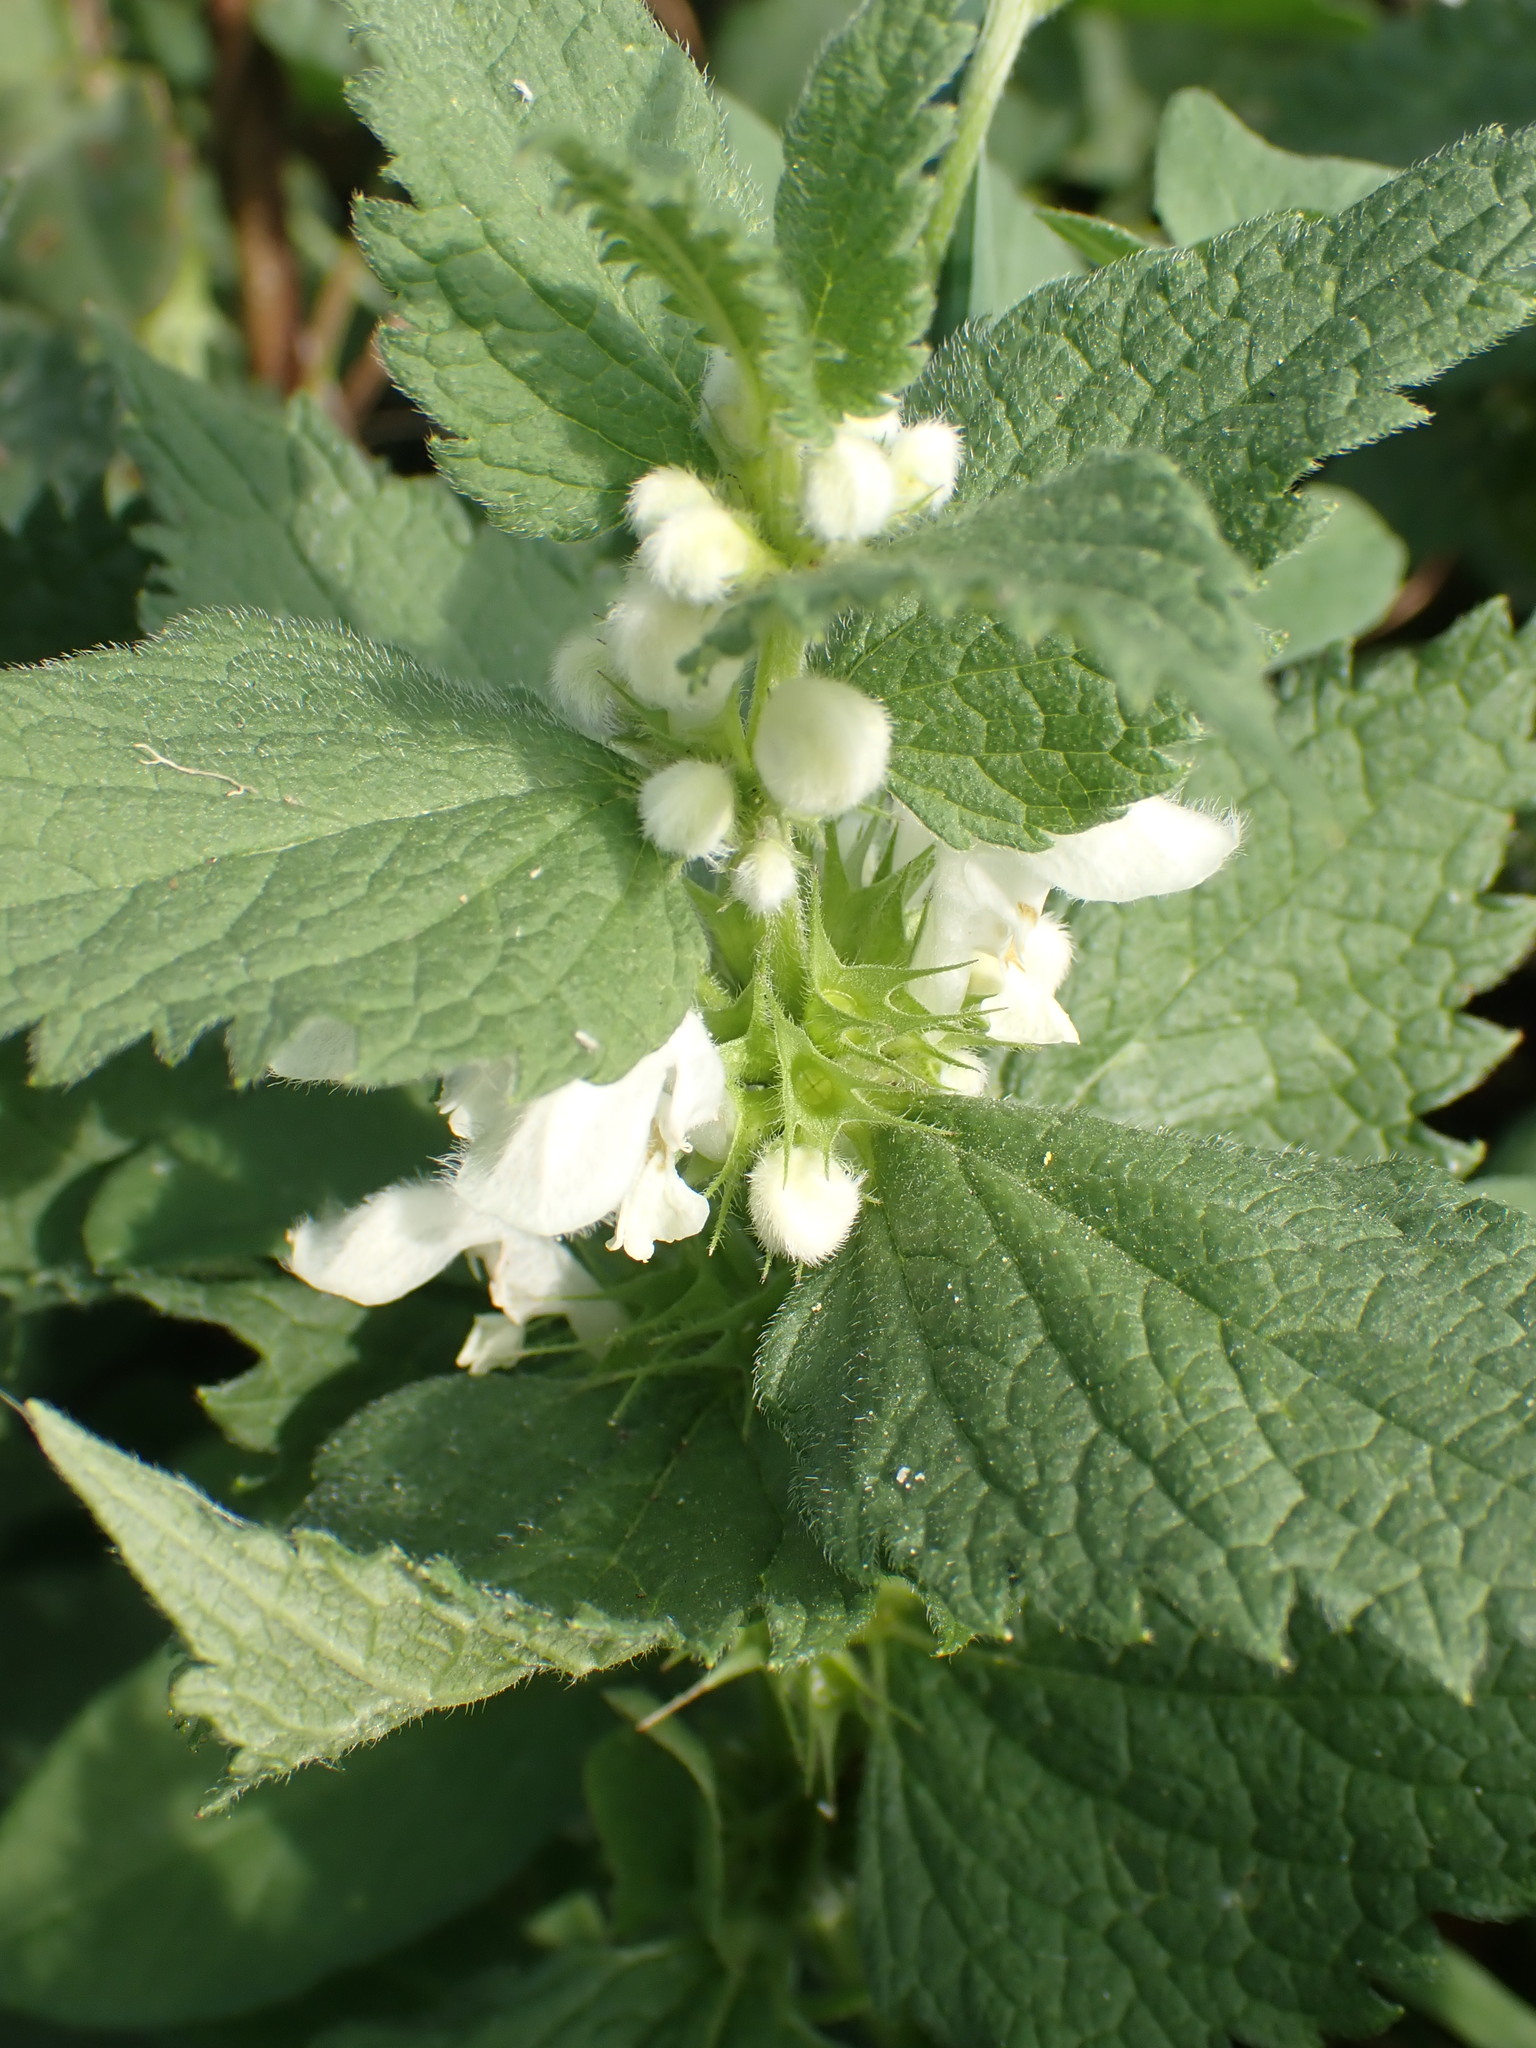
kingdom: Plantae
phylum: Tracheophyta
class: Magnoliopsida
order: Lamiales
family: Lamiaceae
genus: Lamium
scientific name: Lamium album
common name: White dead-nettle
